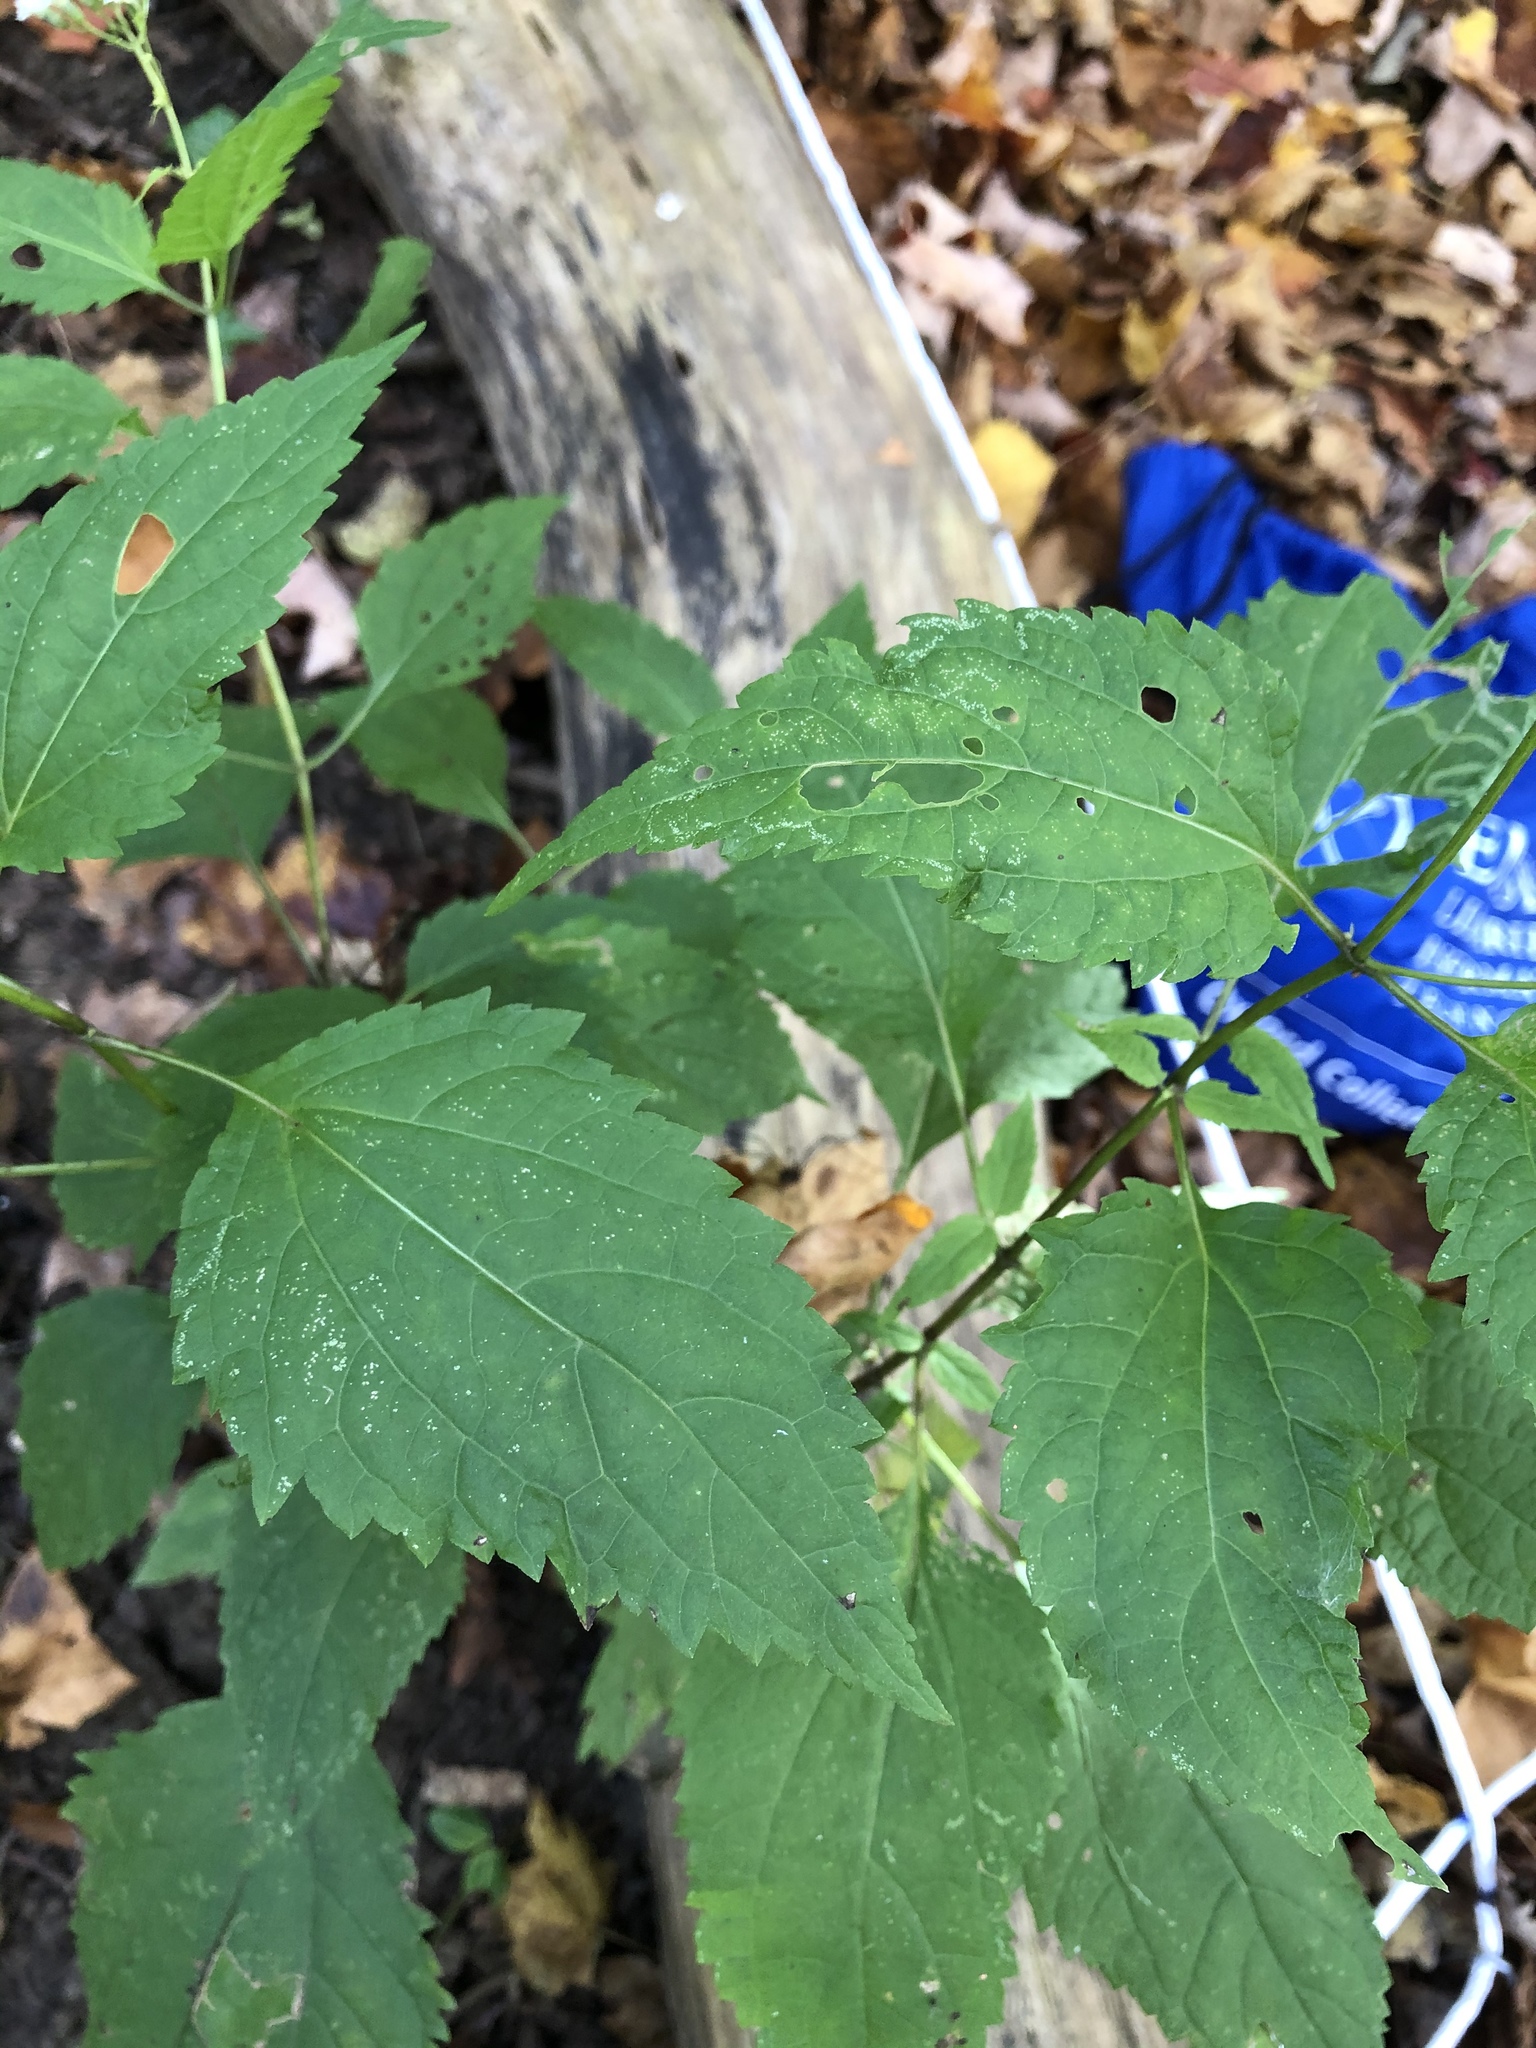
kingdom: Plantae
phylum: Tracheophyta
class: Magnoliopsida
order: Asterales
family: Asteraceae
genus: Ageratina
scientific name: Ageratina altissima
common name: White snakeroot
